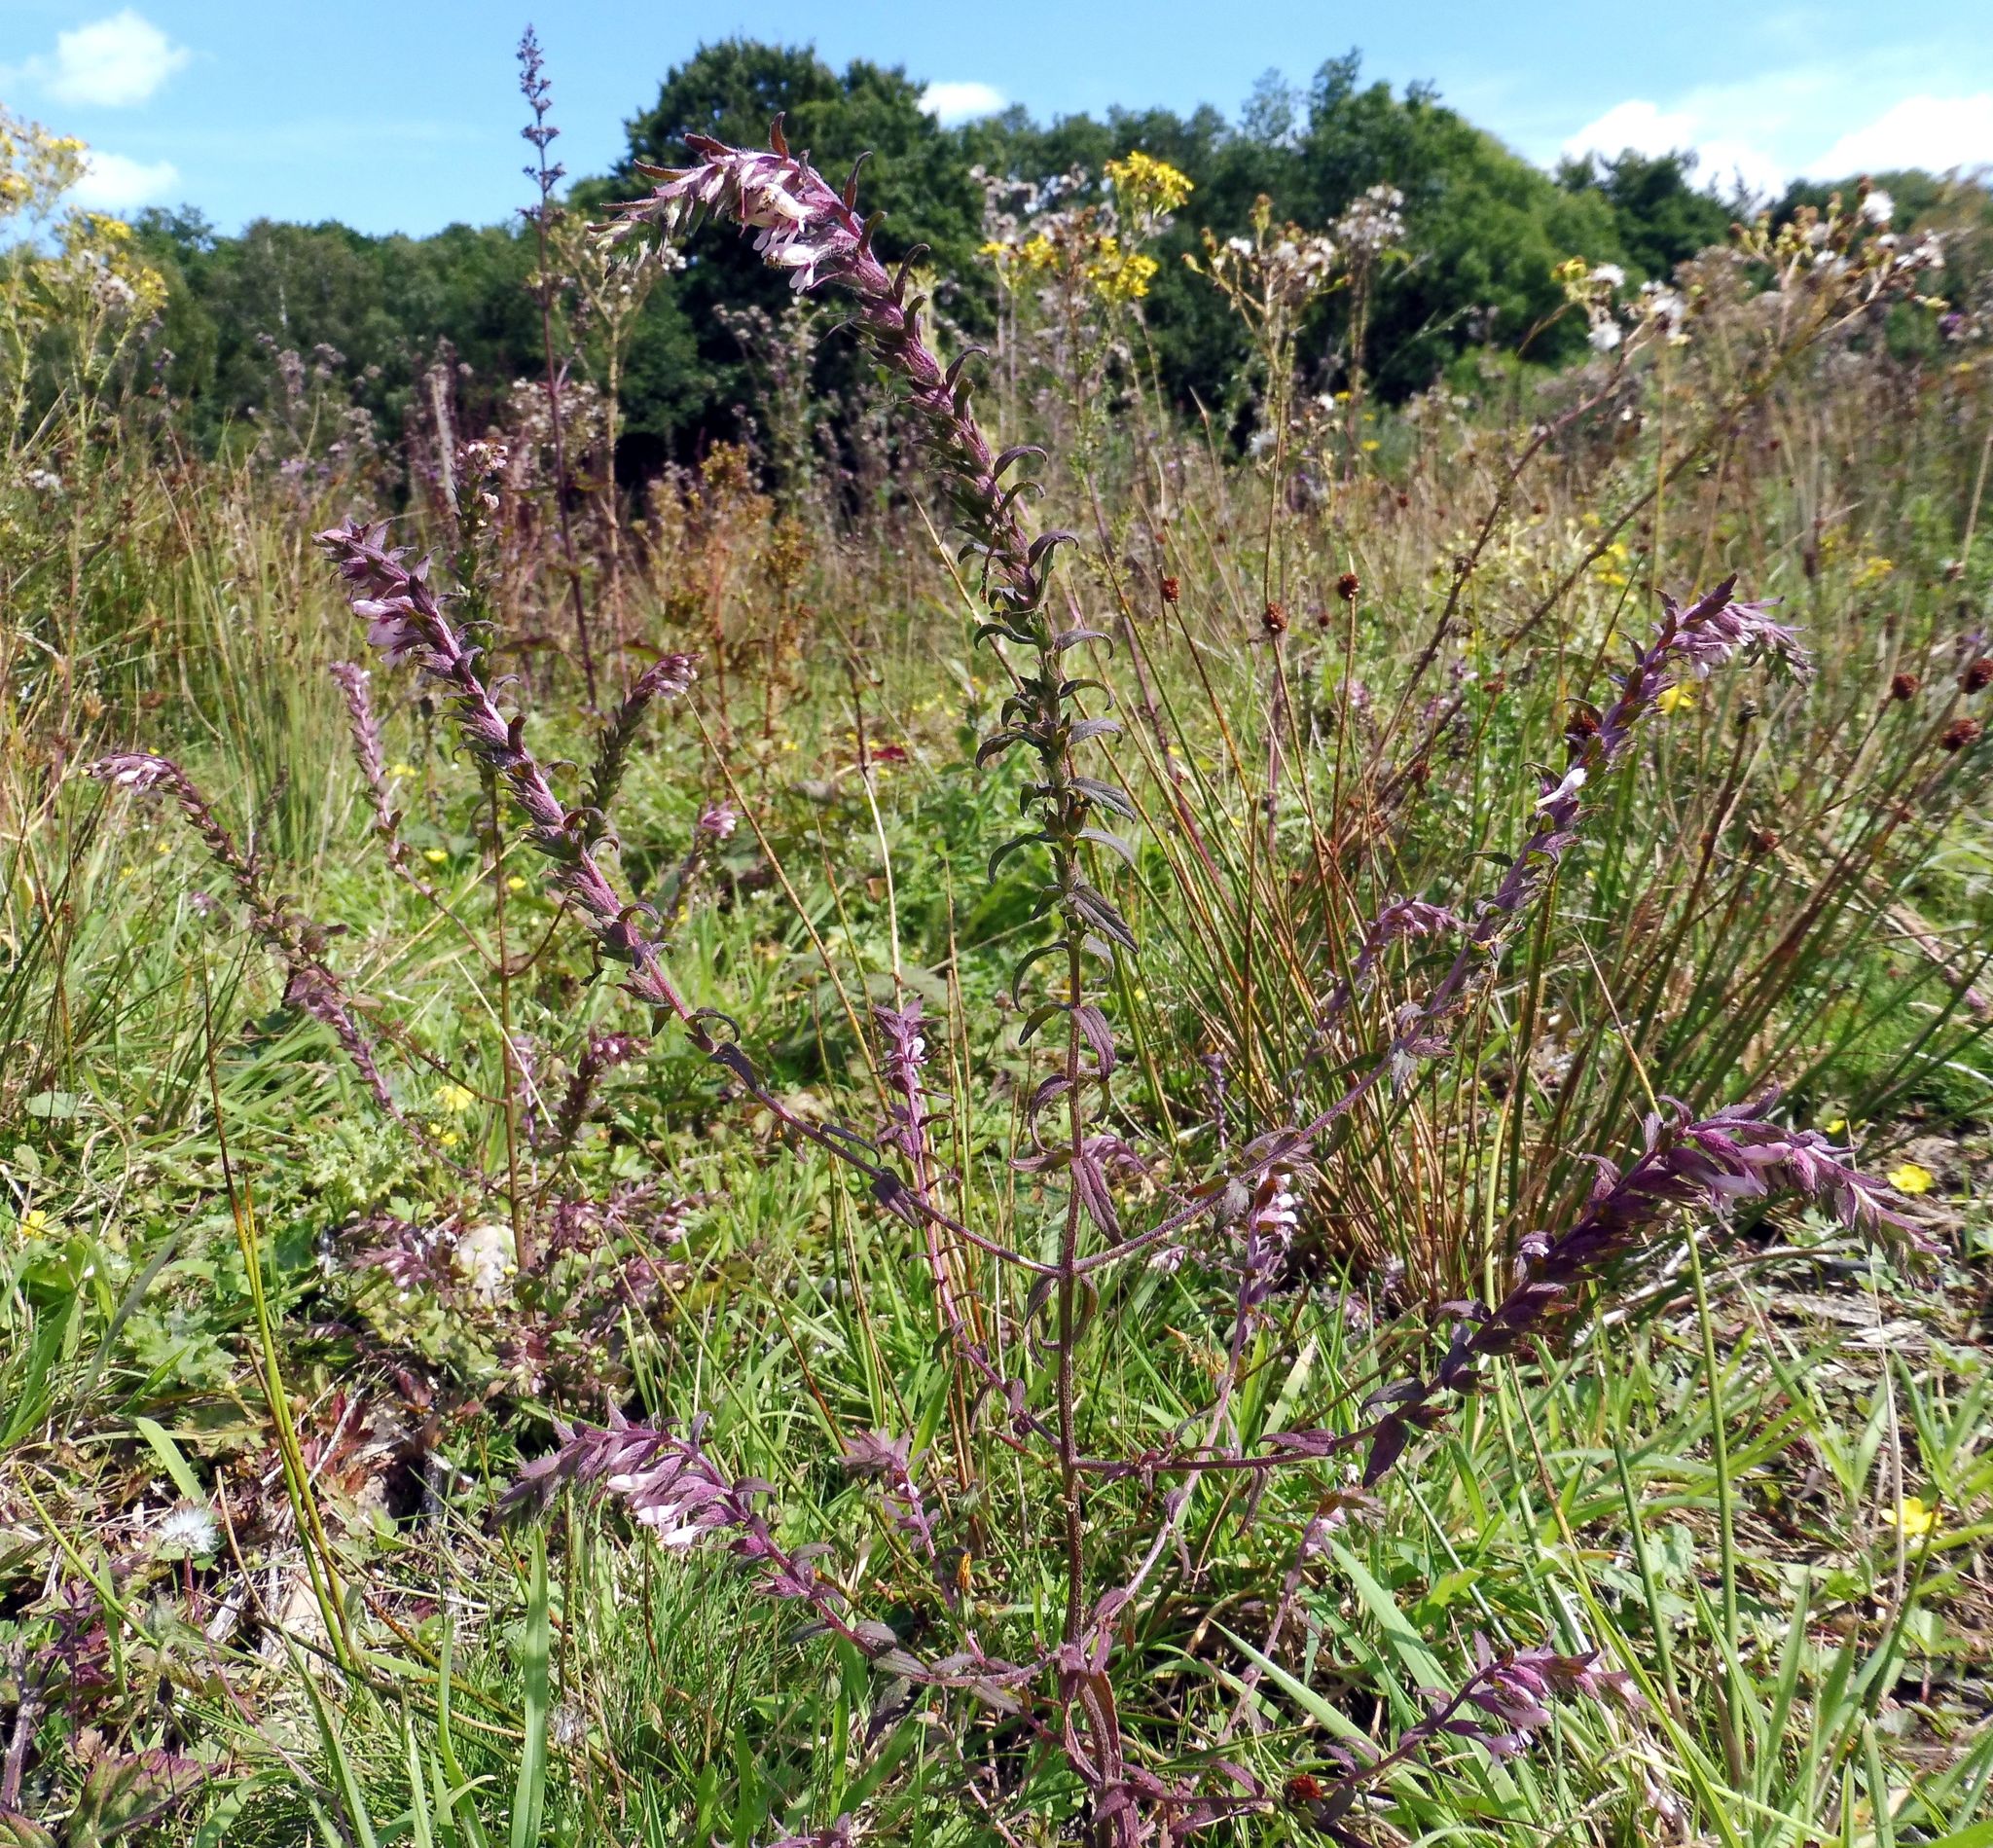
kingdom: Plantae
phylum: Tracheophyta
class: Magnoliopsida
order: Lamiales
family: Orobanchaceae
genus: Odontites
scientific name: Odontites vulgaris
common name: Broomrape
